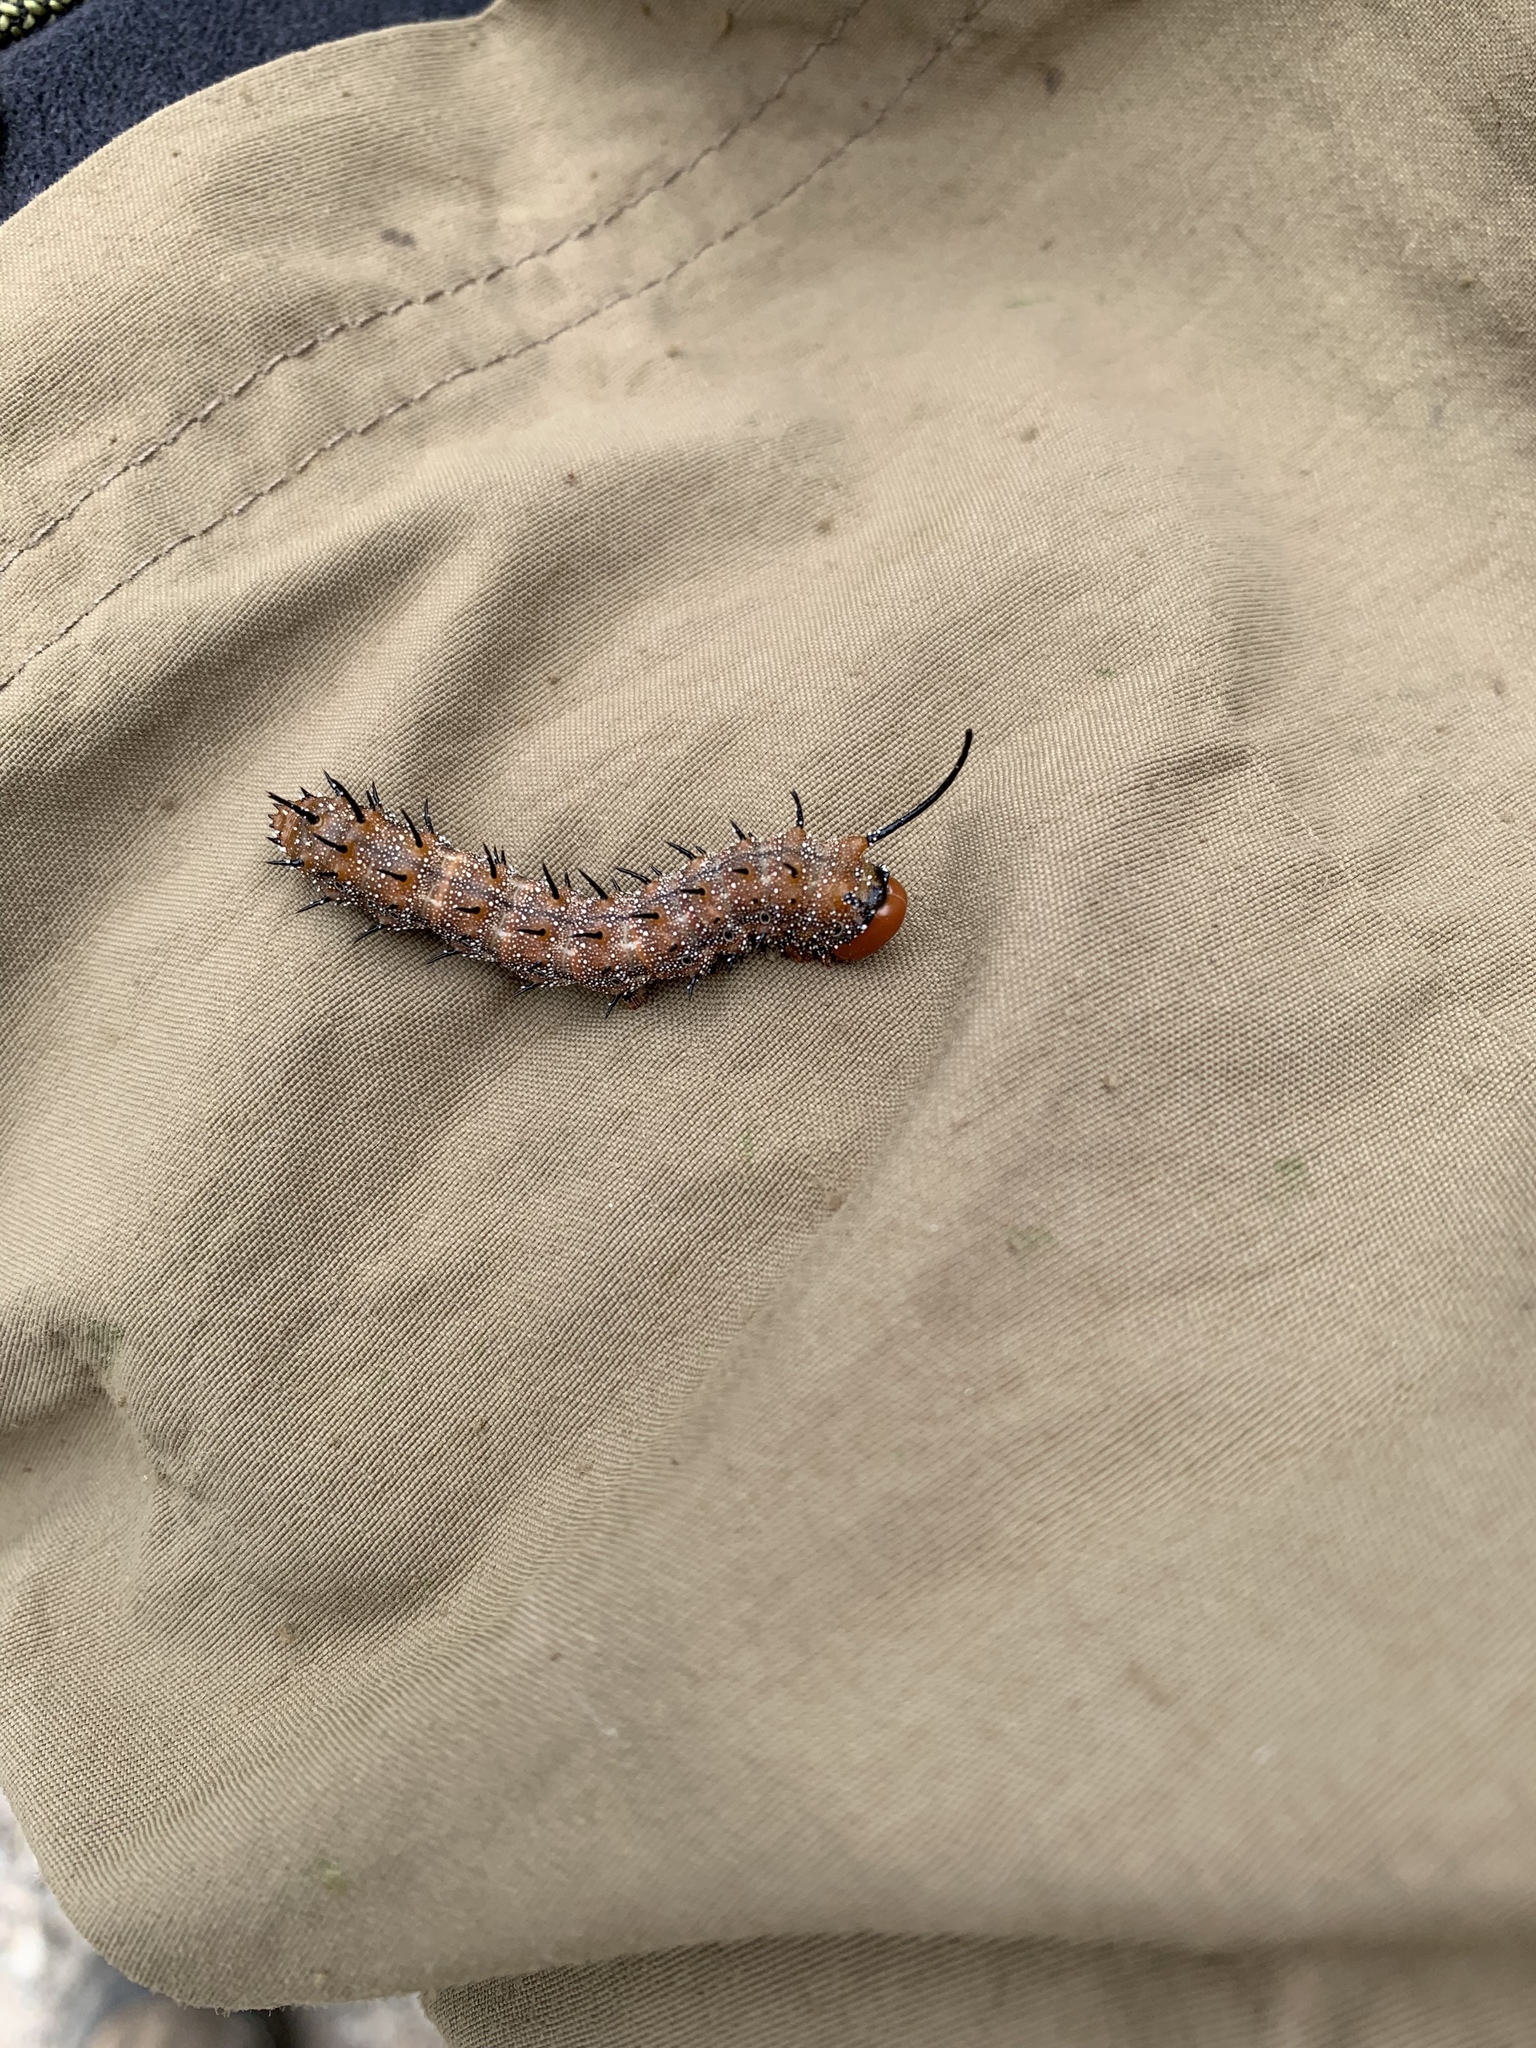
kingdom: Animalia
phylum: Arthropoda
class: Insecta
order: Lepidoptera
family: Saturniidae
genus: Anisota
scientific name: Anisota stigma
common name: Spiny oakworm moth
